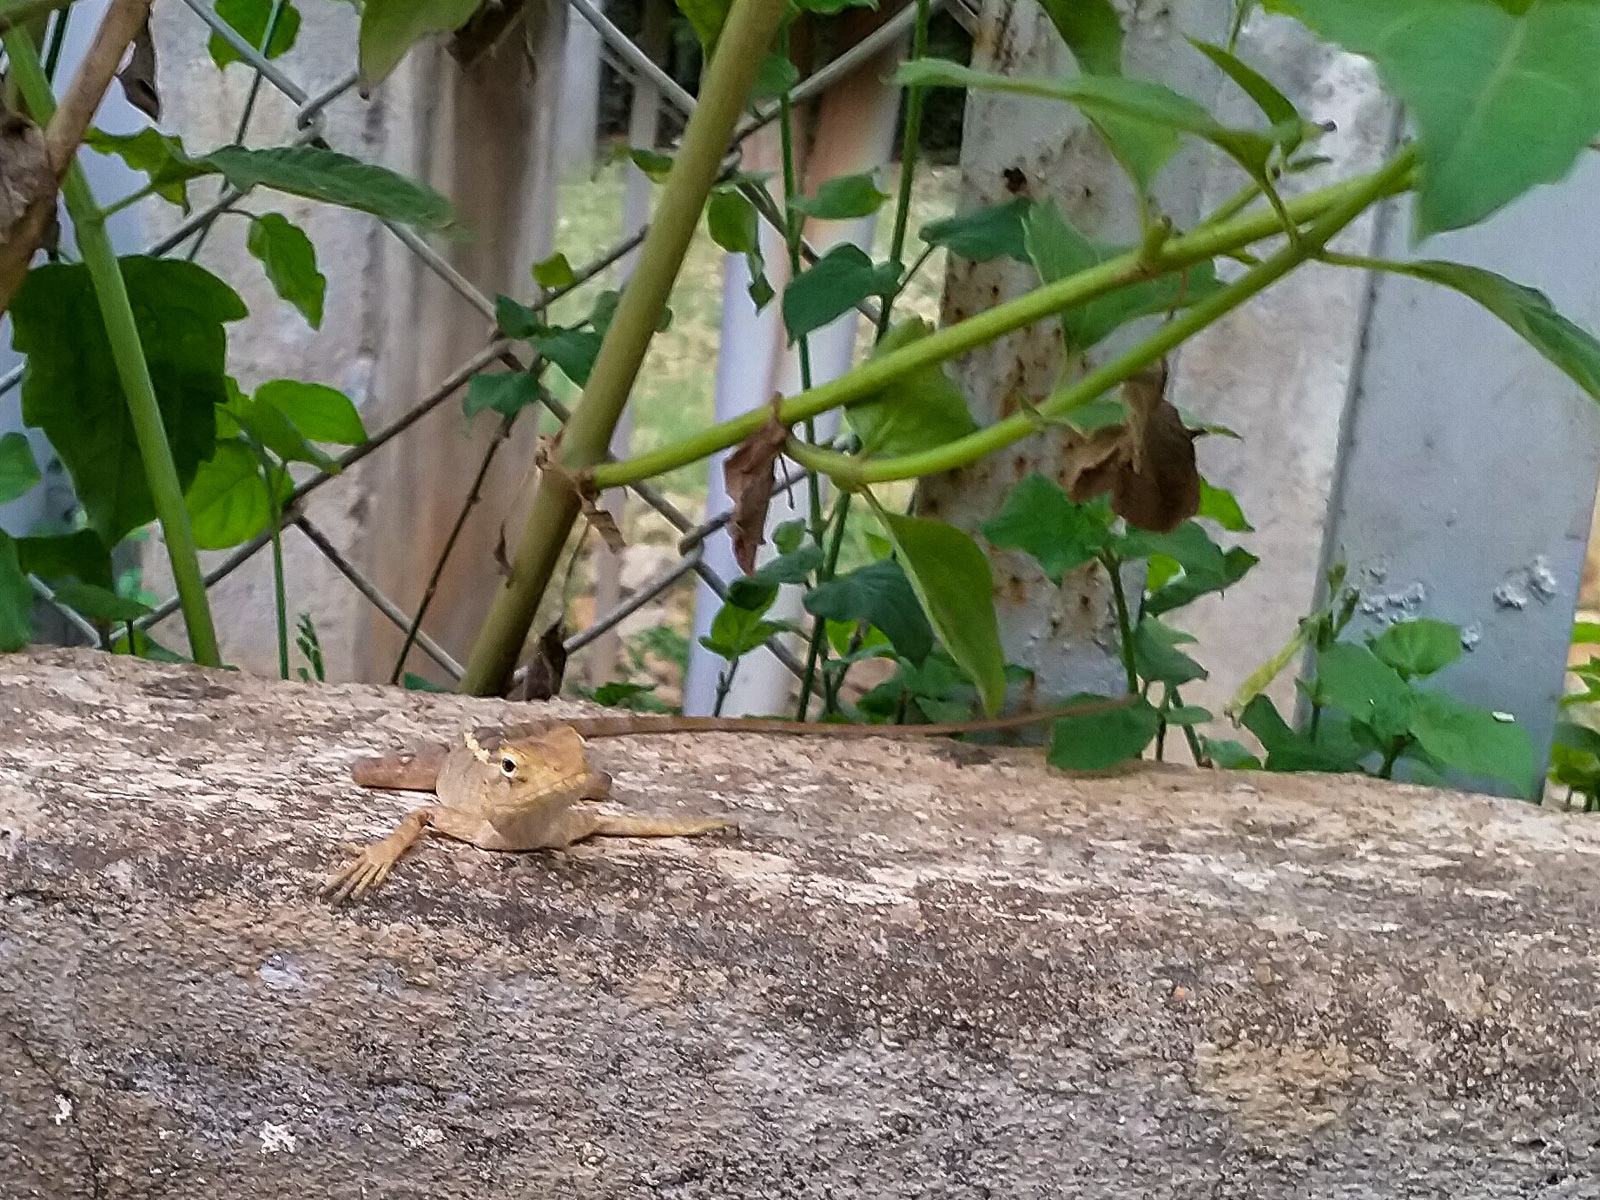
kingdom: Animalia
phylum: Chordata
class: Squamata
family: Agamidae
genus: Calotes
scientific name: Calotes versicolor
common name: Oriental garden lizard
